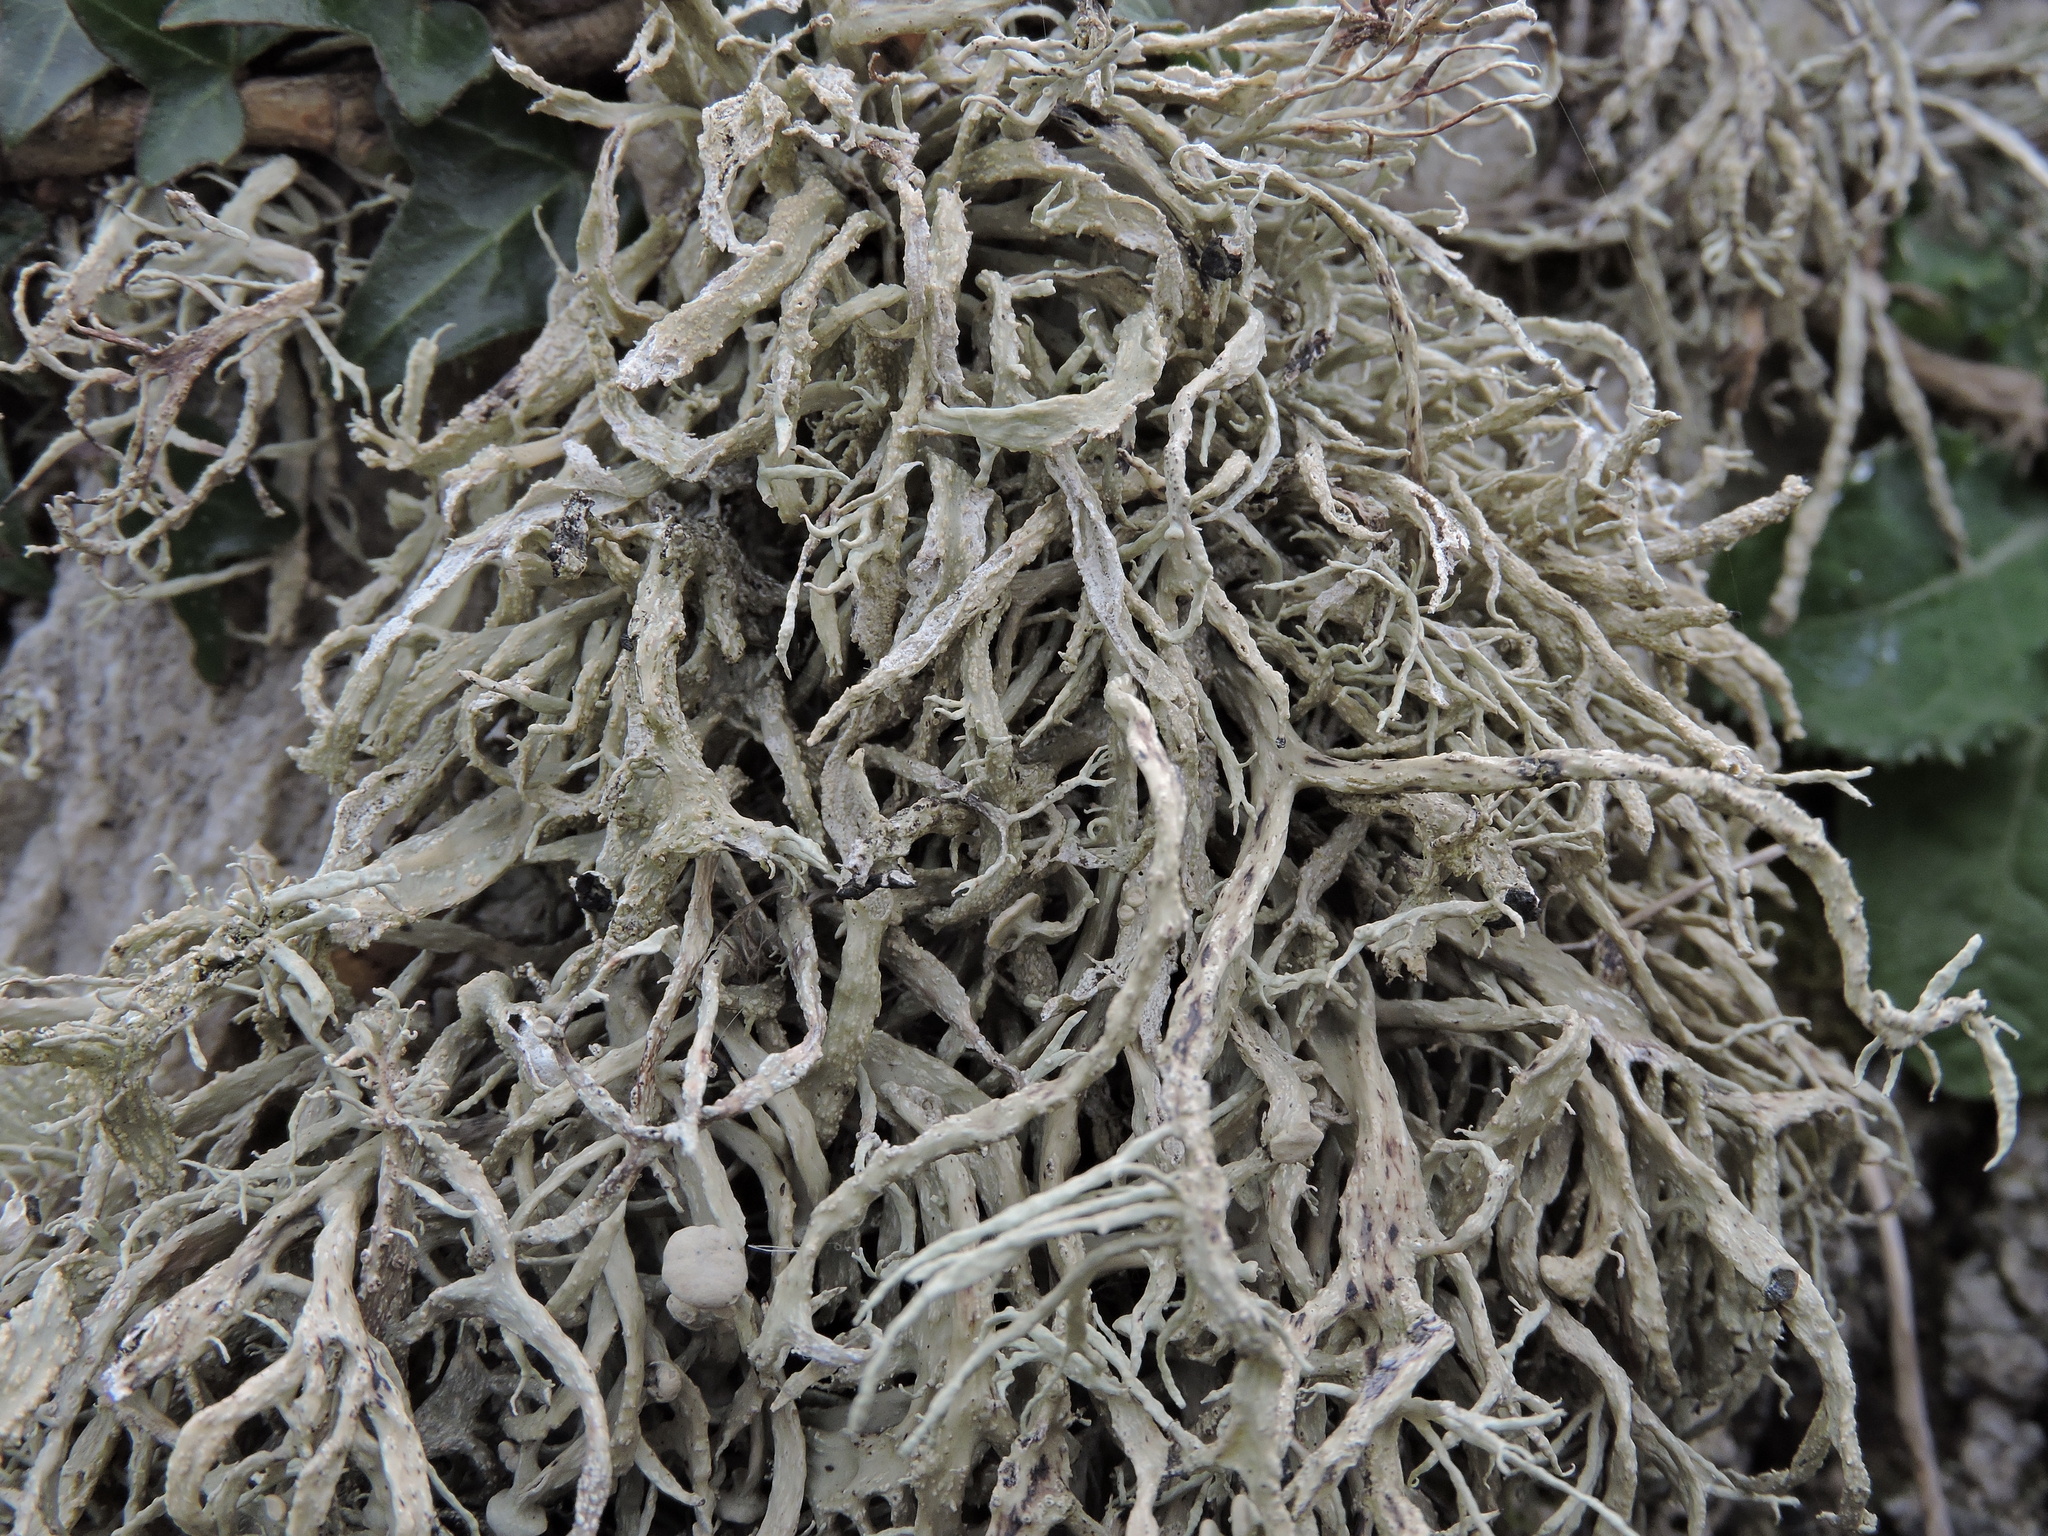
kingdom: Fungi
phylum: Ascomycota
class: Lecanoromycetes
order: Lecanorales
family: Ramalinaceae
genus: Ramalina
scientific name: Ramalina siliquosa
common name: Sea ivory
